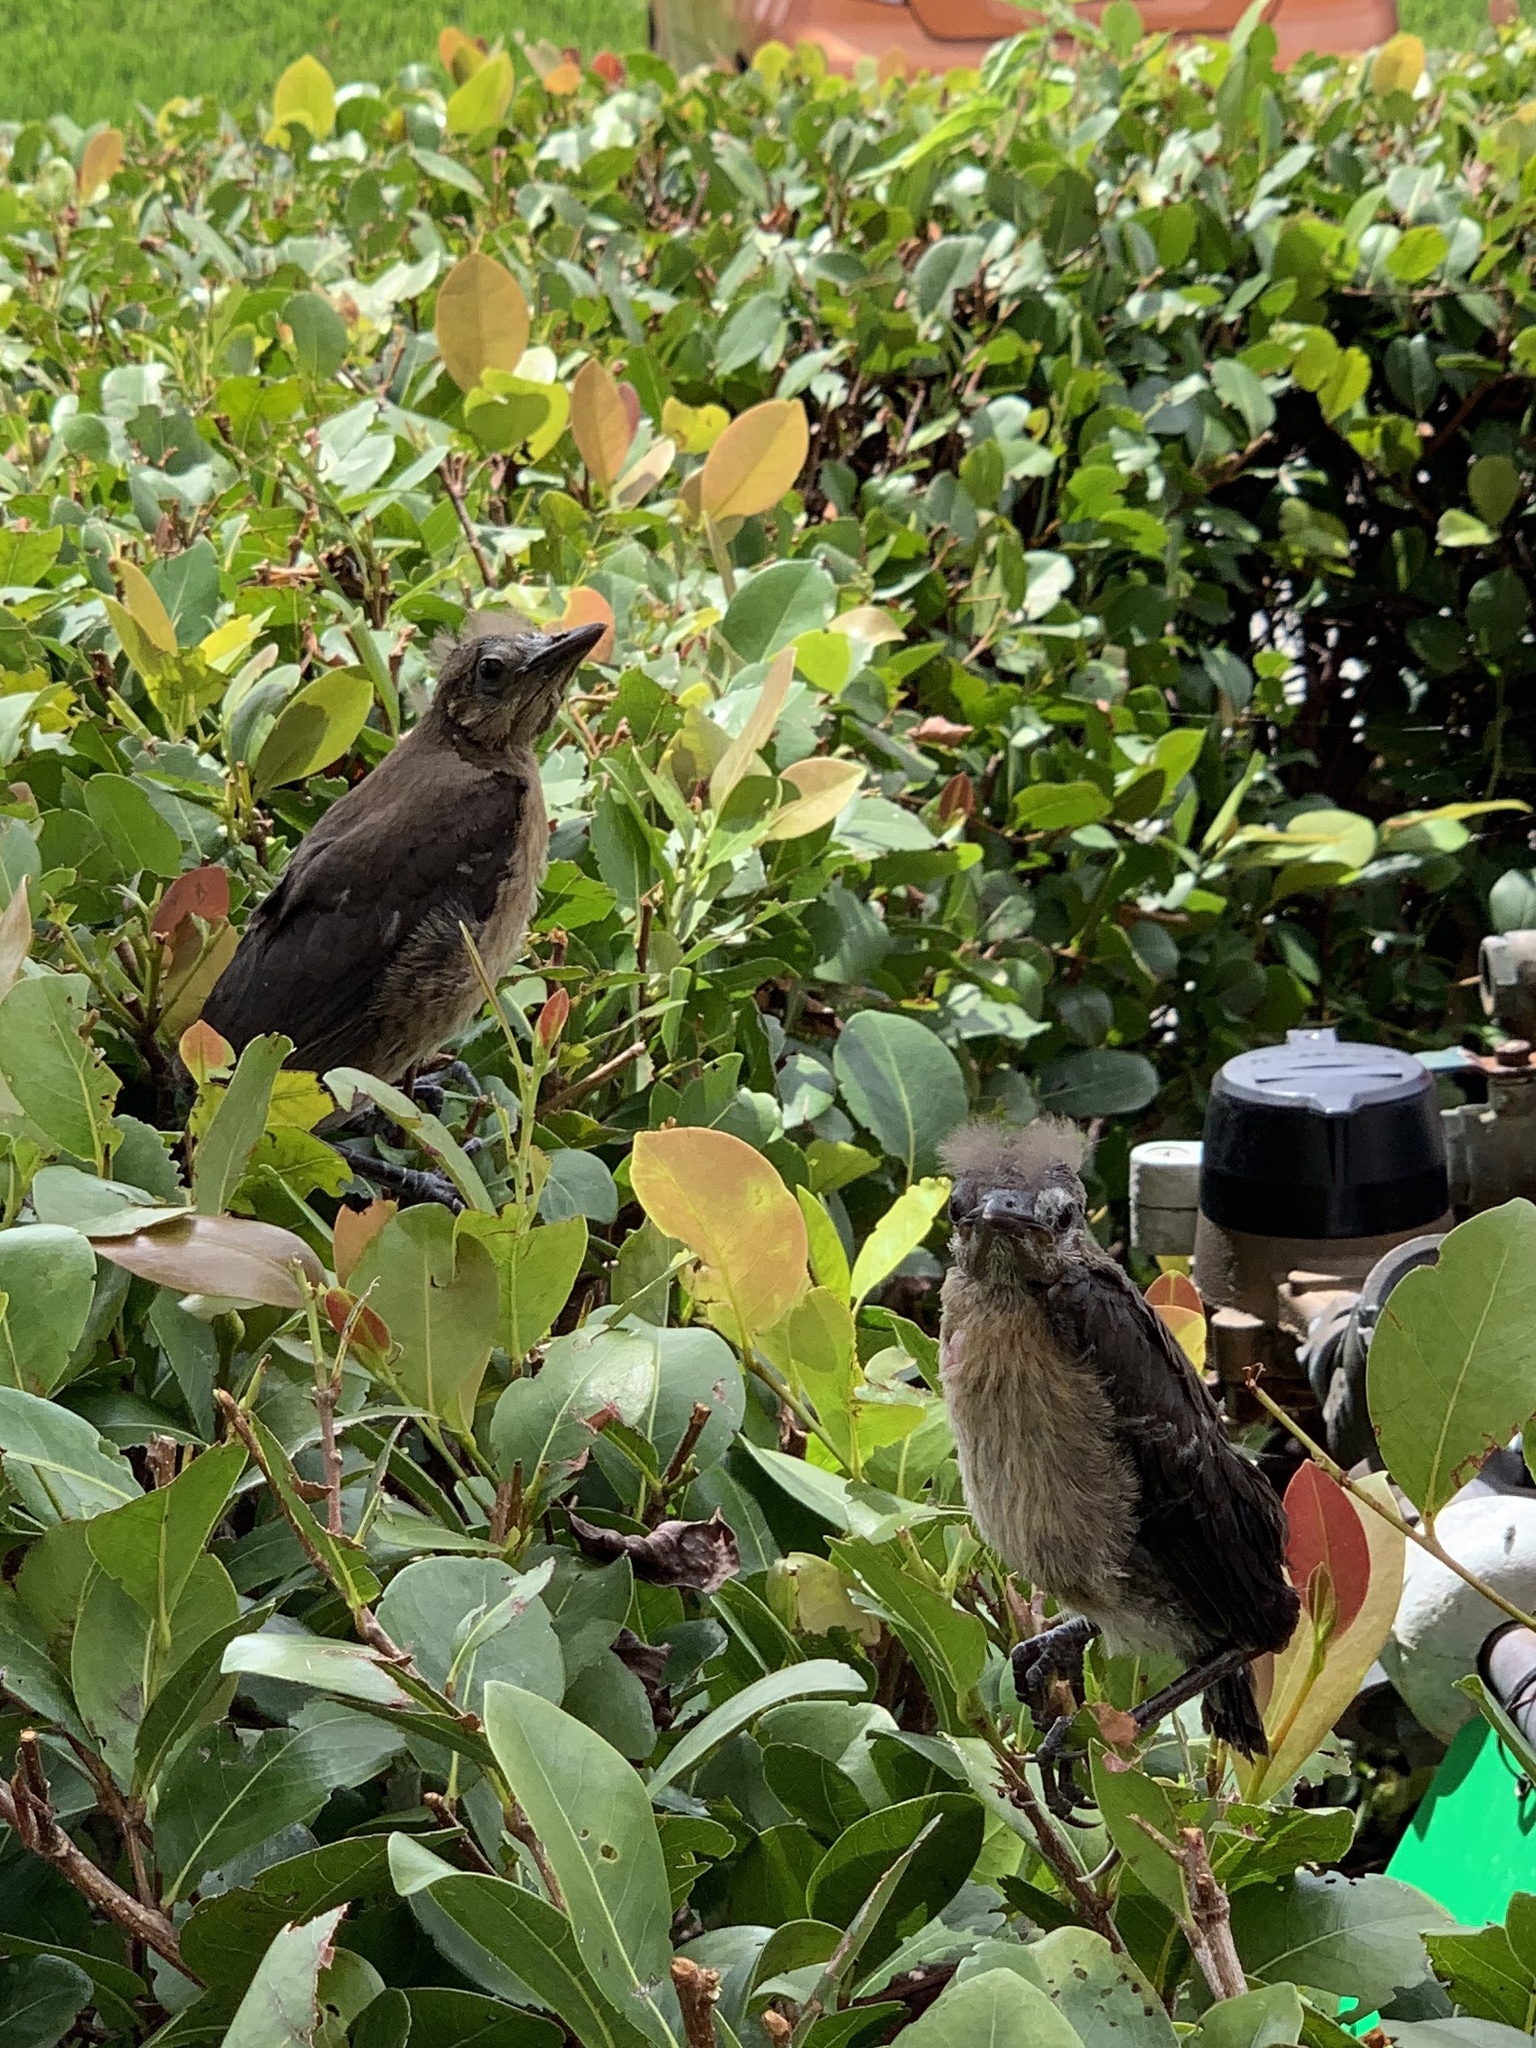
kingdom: Animalia
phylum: Chordata
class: Aves
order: Passeriformes
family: Icteridae
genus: Quiscalus
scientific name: Quiscalus major
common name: Boat-tailed grackle
